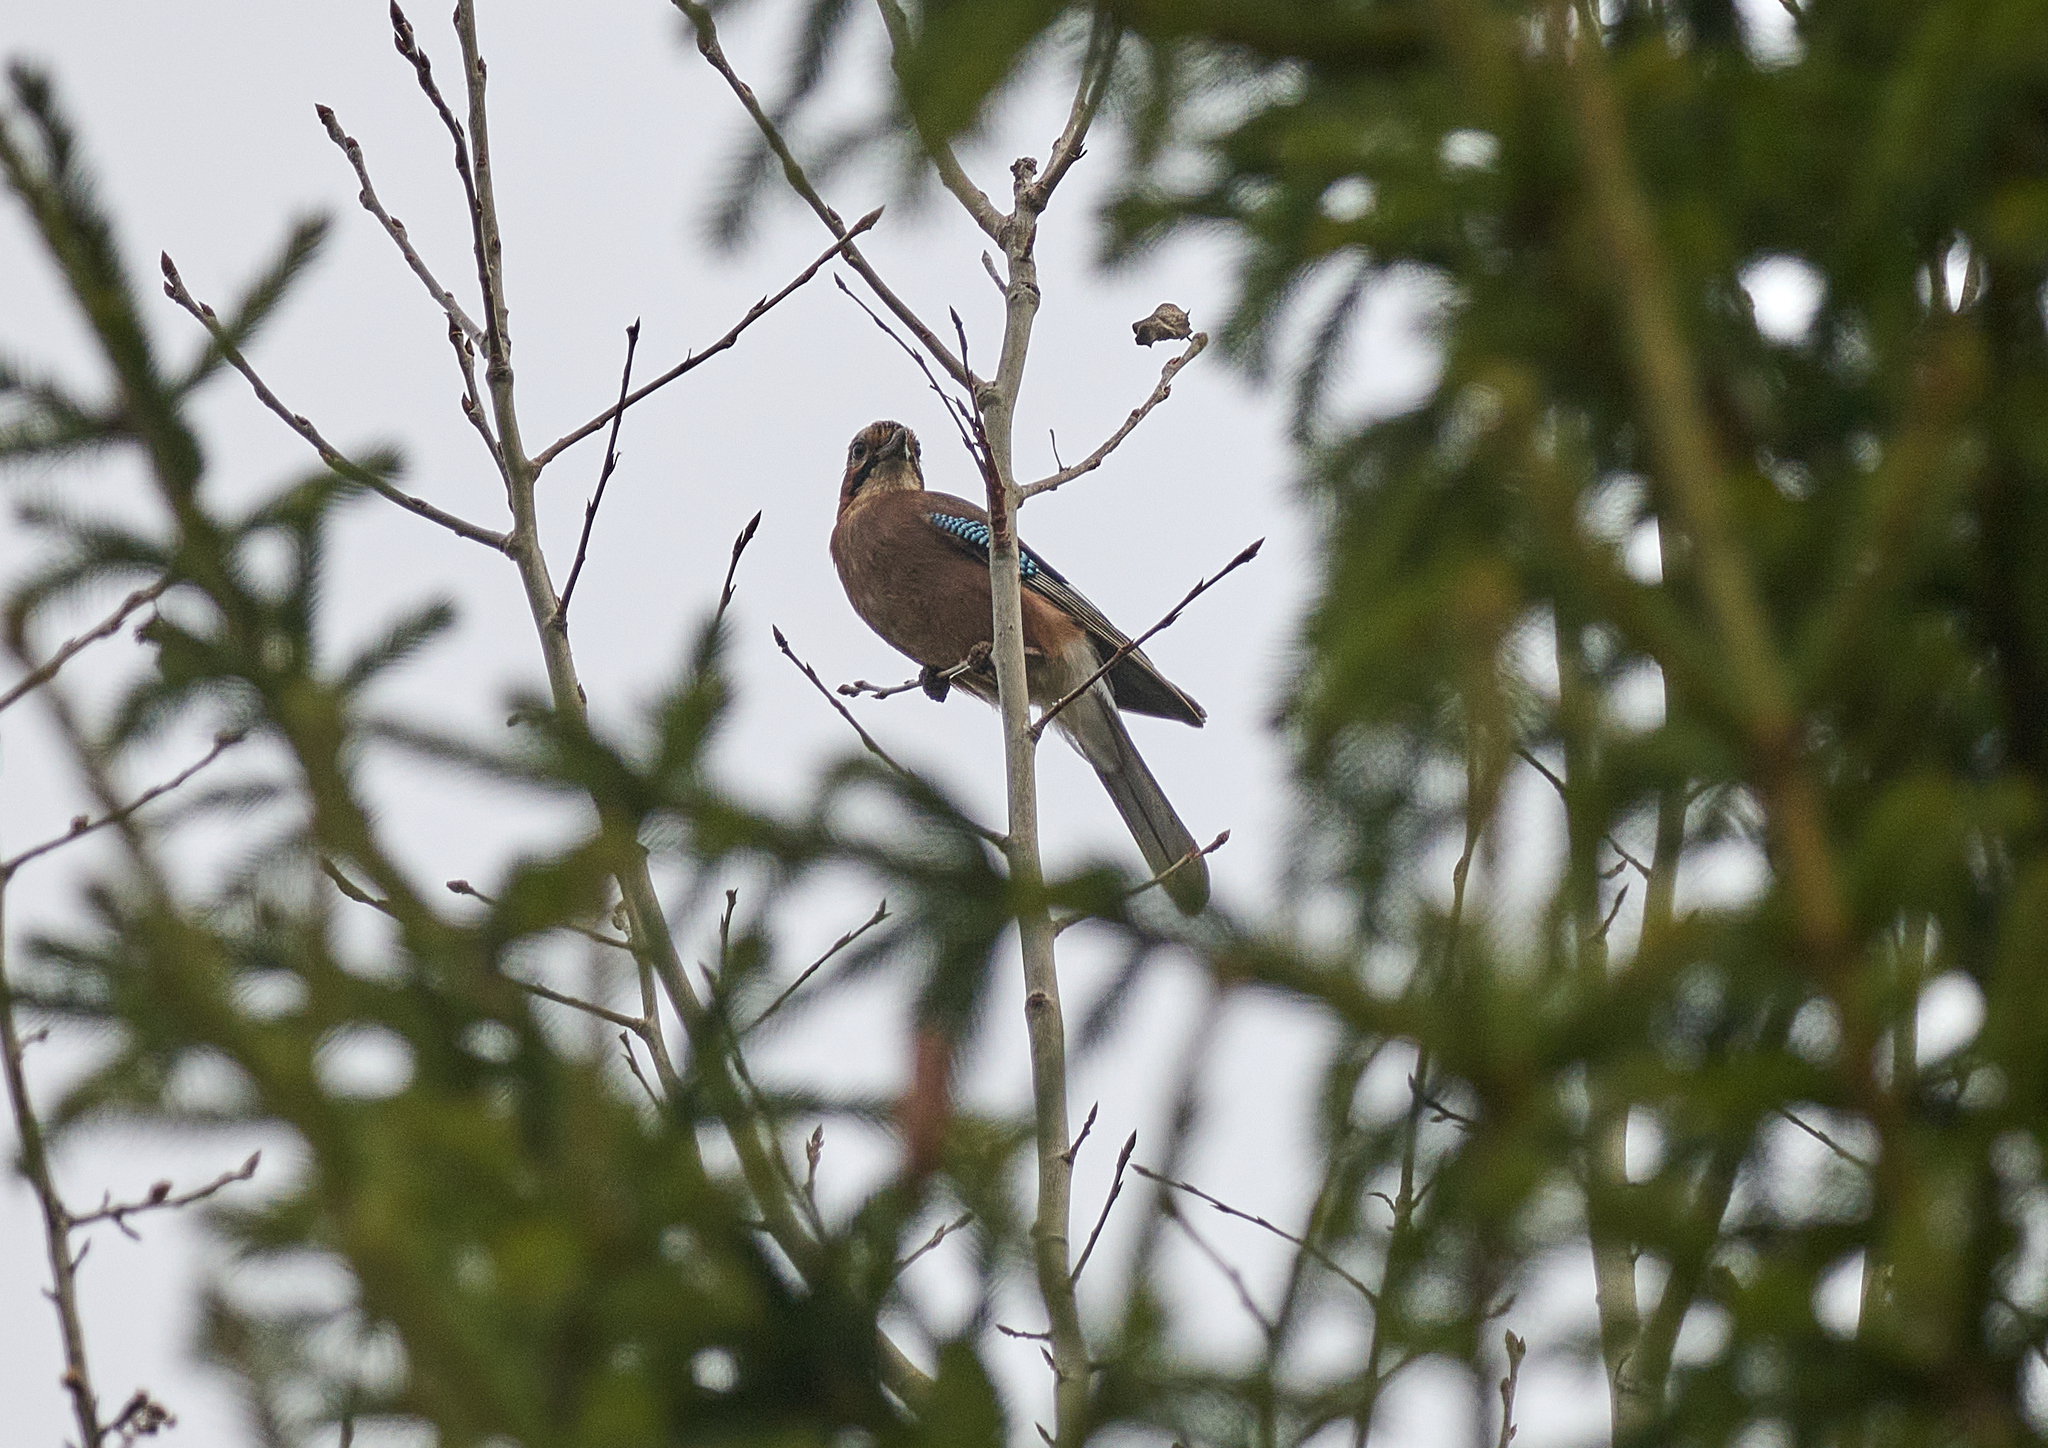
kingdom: Animalia
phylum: Chordata
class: Aves
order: Passeriformes
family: Corvidae
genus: Garrulus
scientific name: Garrulus glandarius
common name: Eurasian jay
